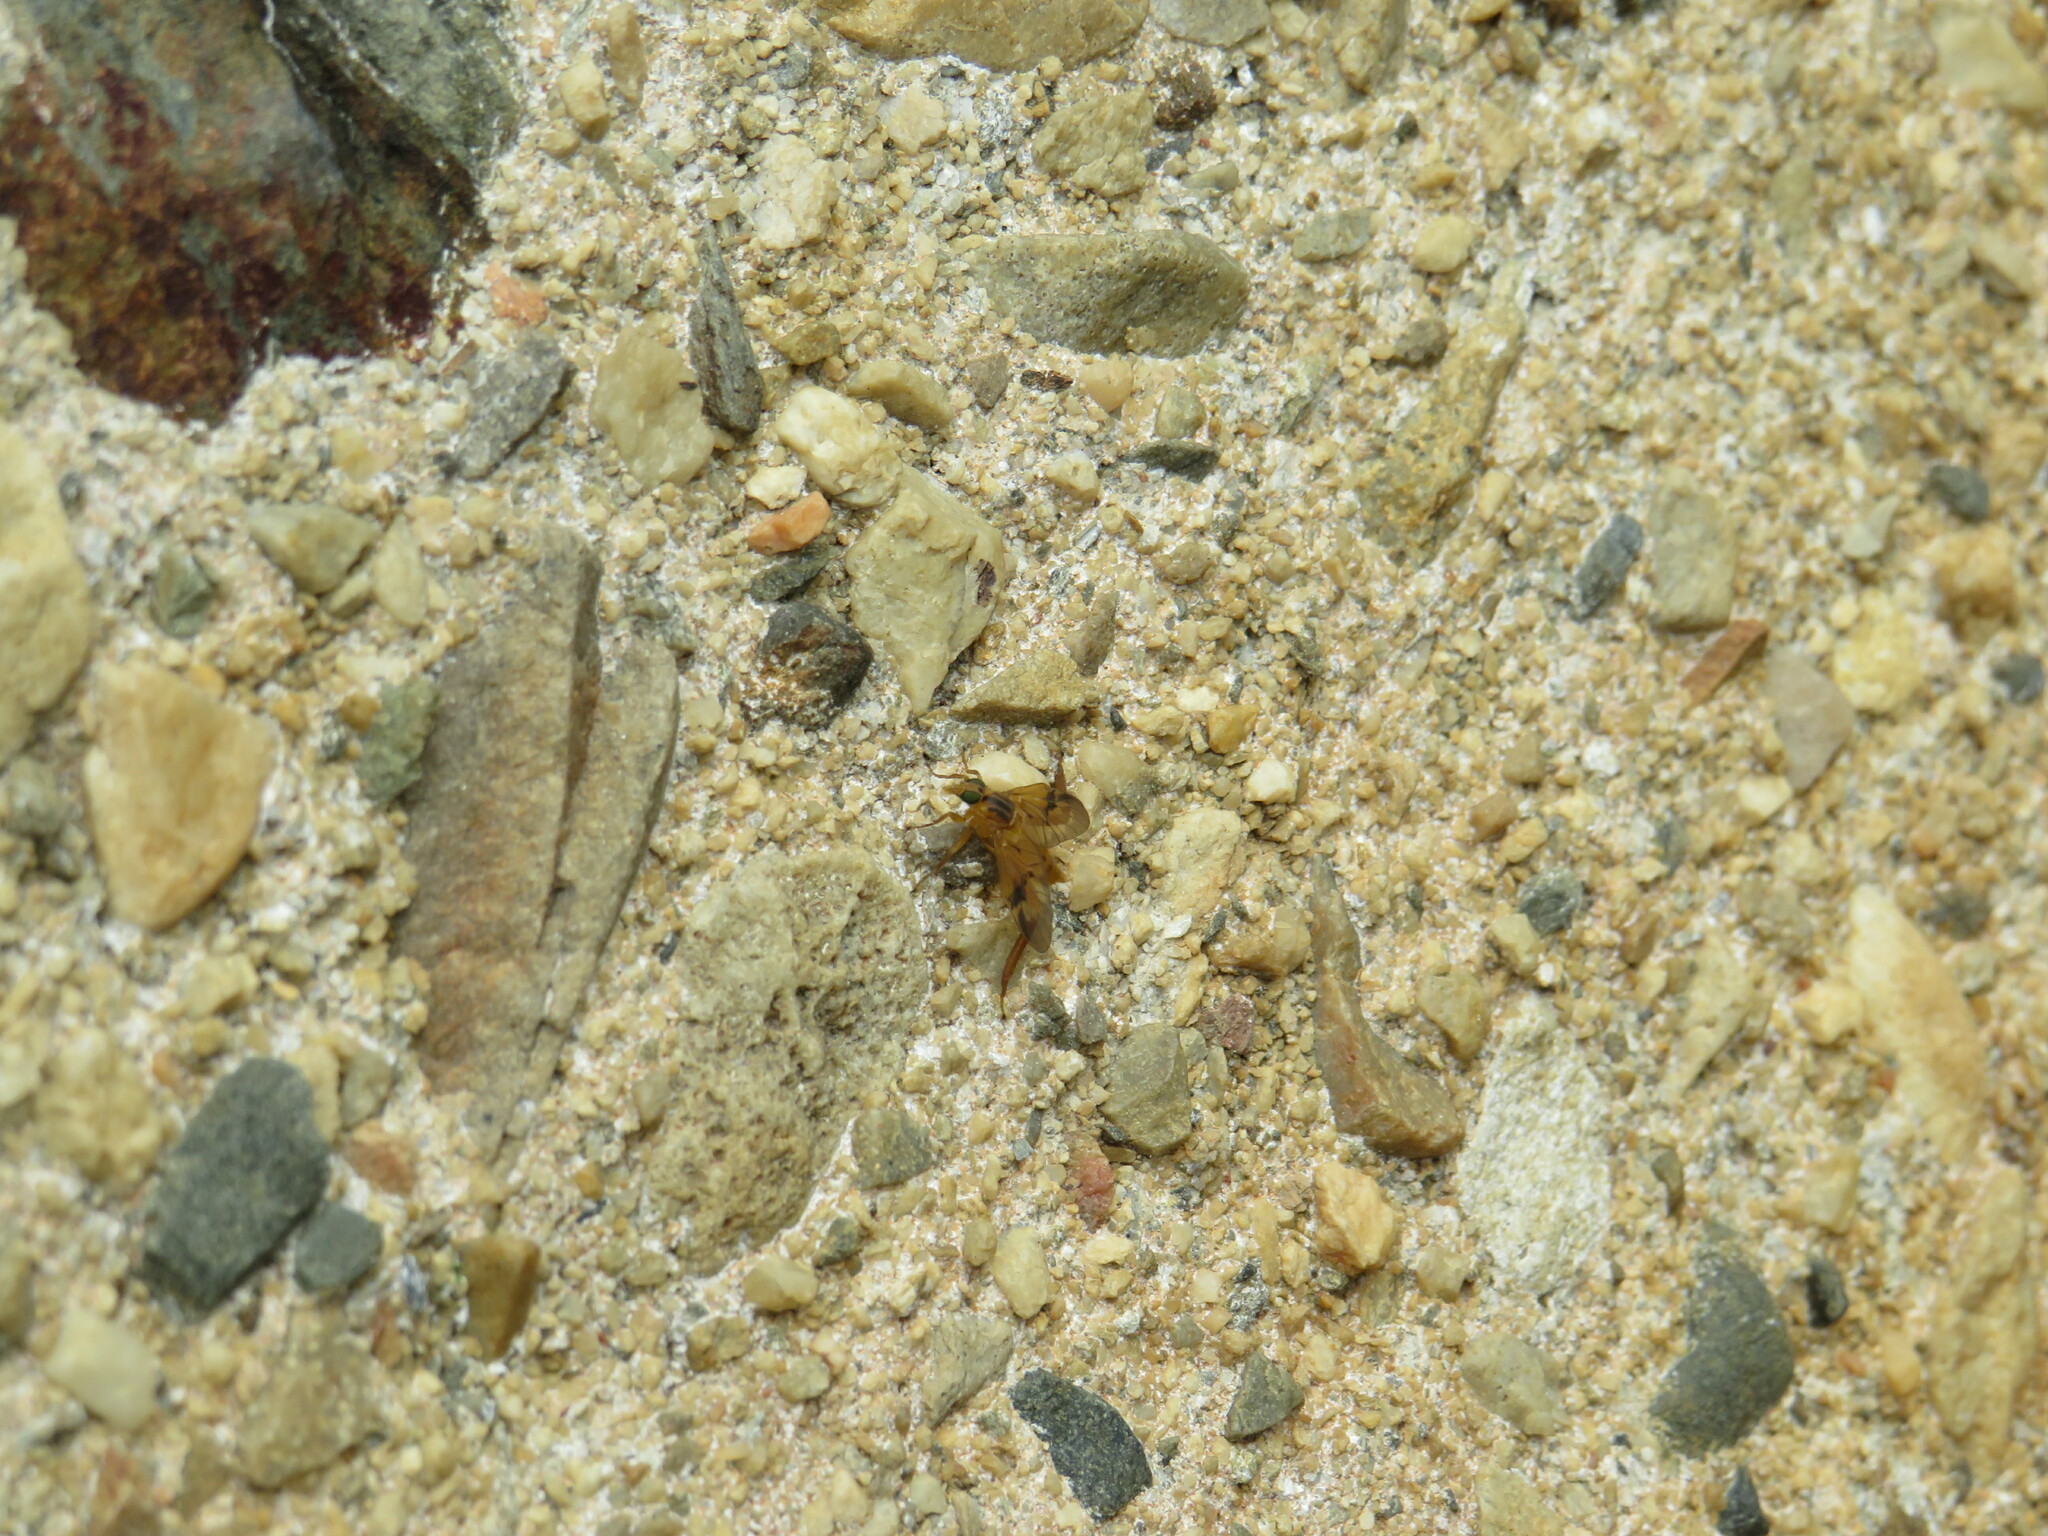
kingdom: Animalia
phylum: Arthropoda
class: Insecta
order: Diptera
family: Athericidae
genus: Trichacantha
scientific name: Trichacantha atranupta
